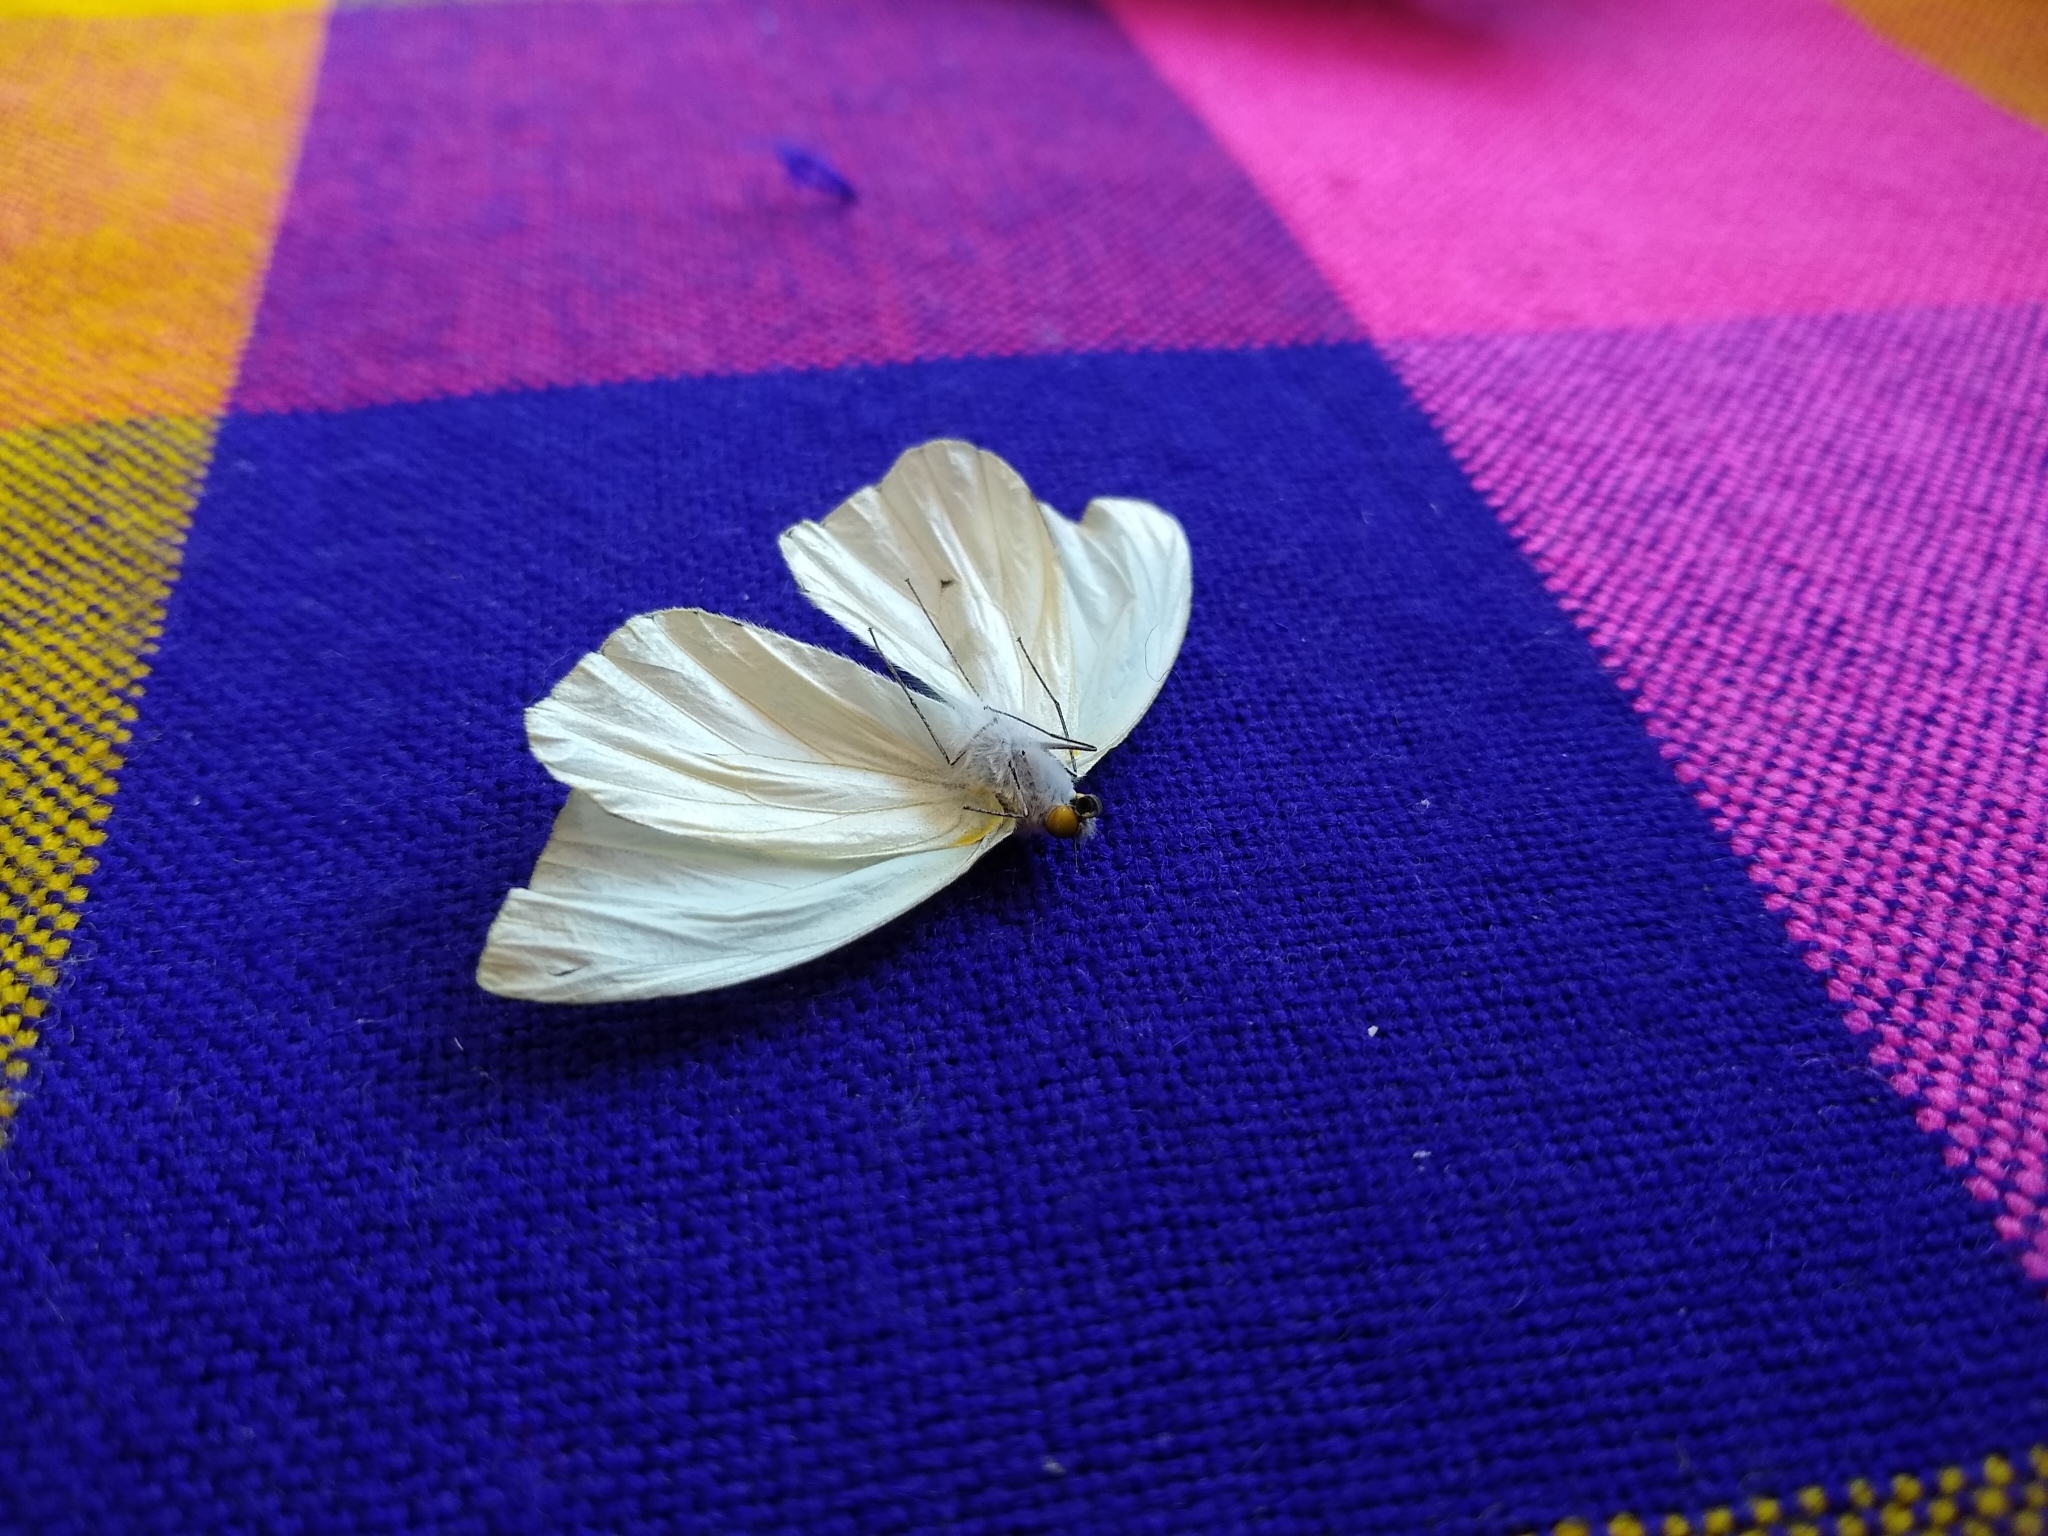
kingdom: Animalia
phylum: Arthropoda
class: Insecta
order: Lepidoptera
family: Pieridae
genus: Leptophobia
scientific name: Leptophobia aripa
